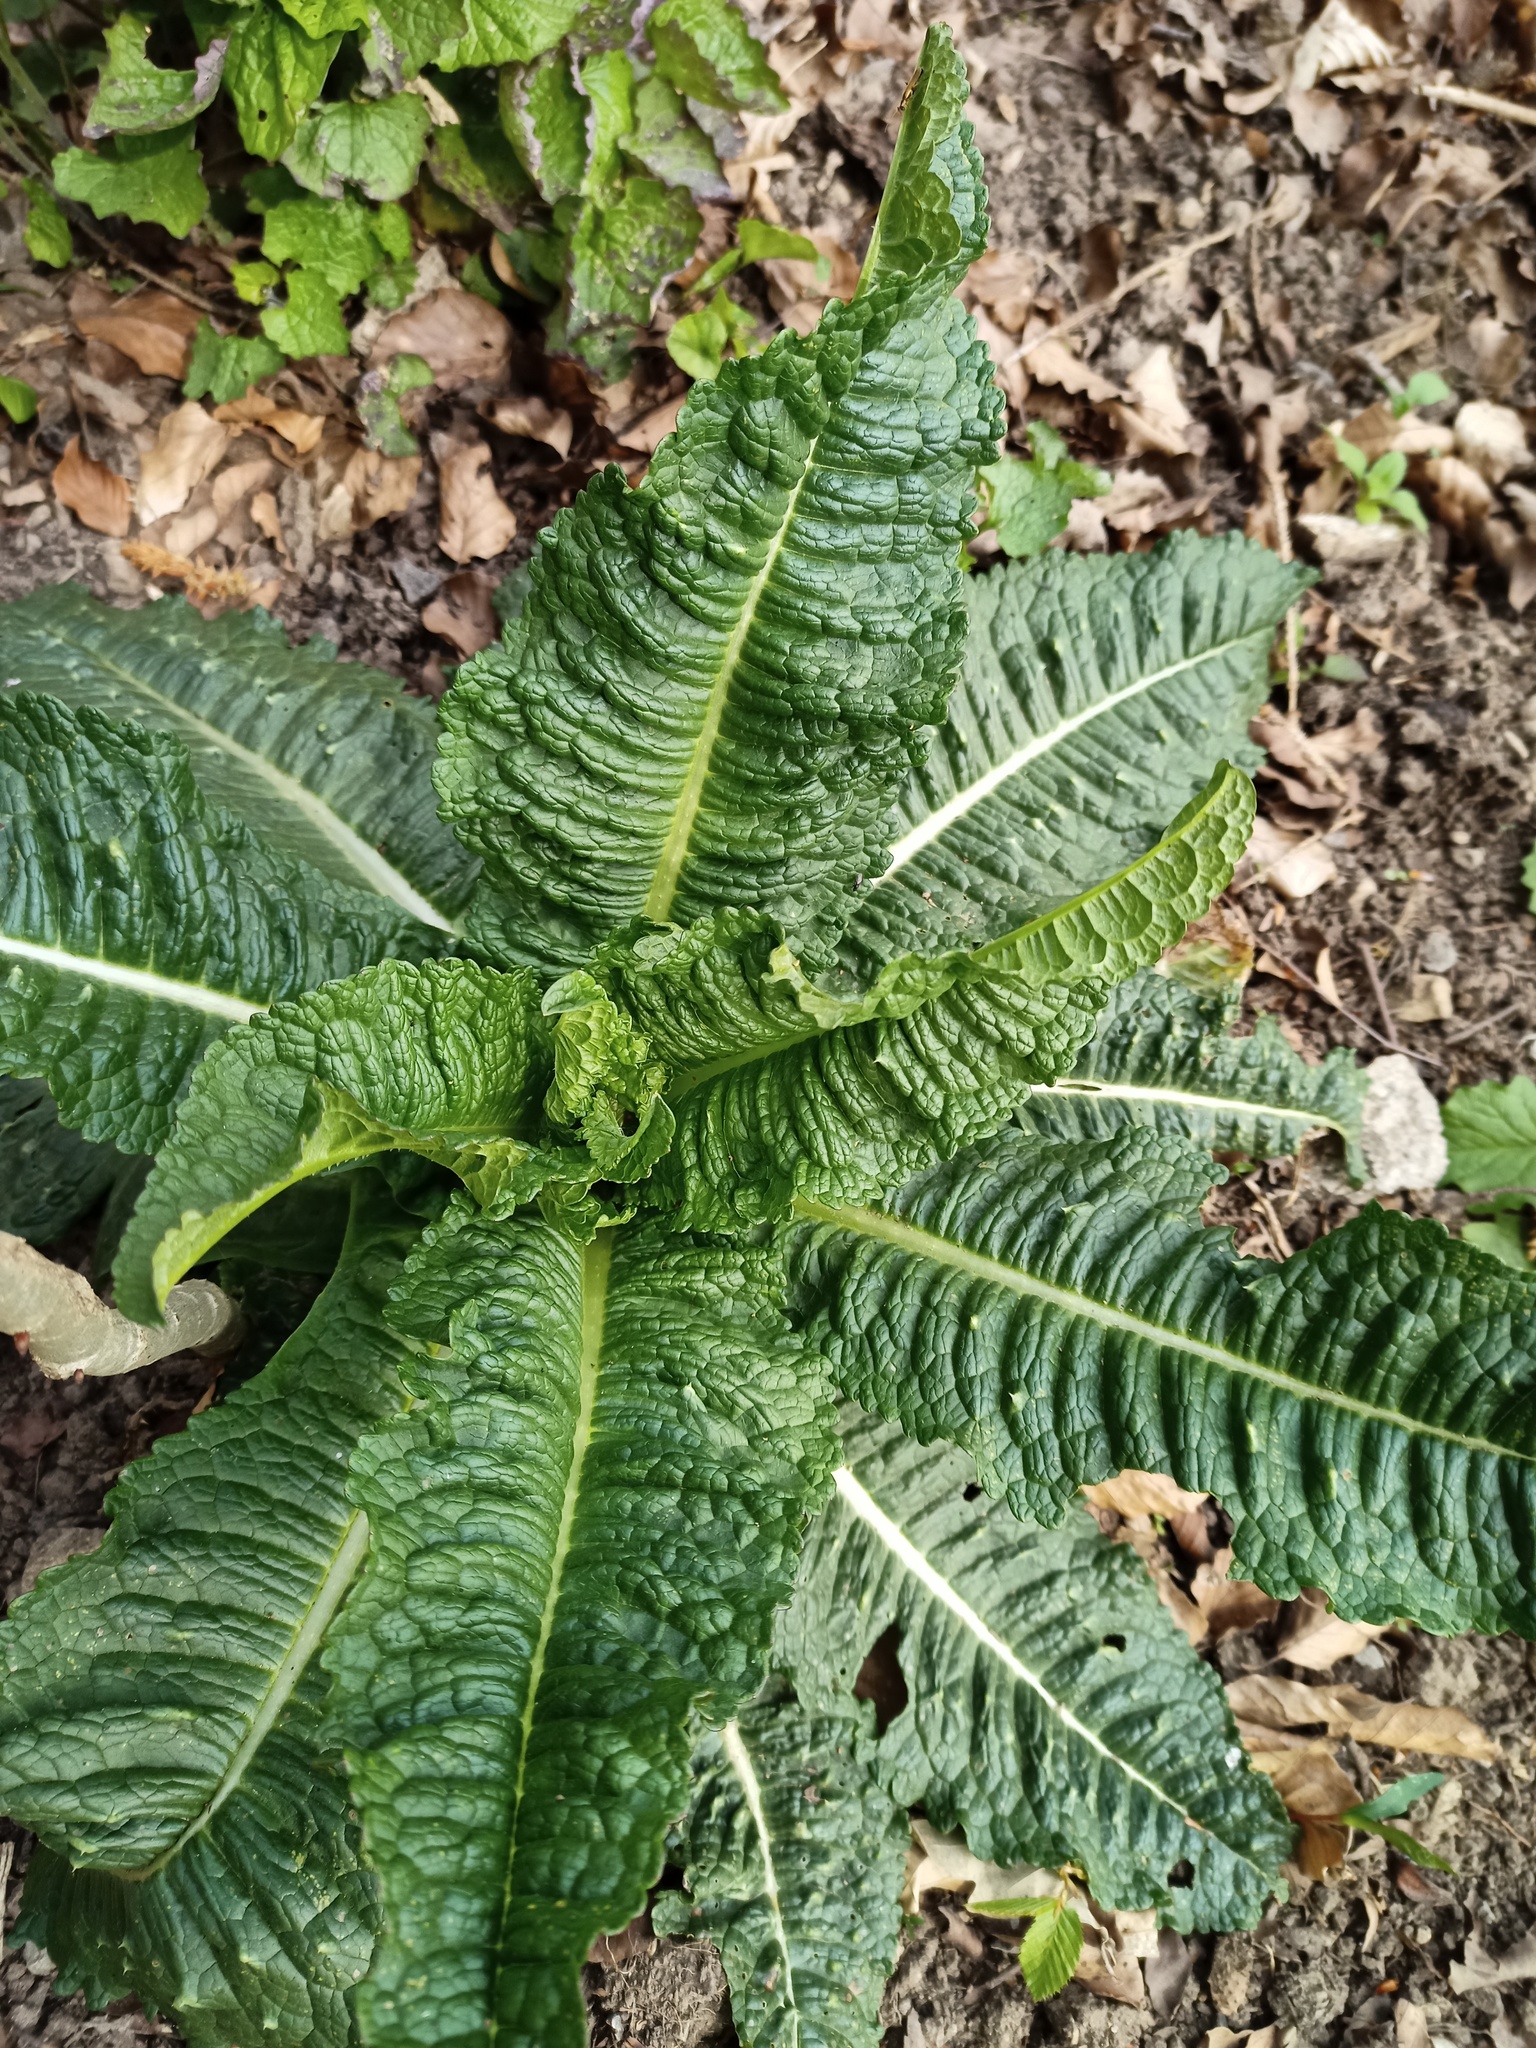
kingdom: Plantae
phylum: Tracheophyta
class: Magnoliopsida
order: Dipsacales
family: Caprifoliaceae
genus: Dipsacus
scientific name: Dipsacus fullonum
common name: Teasel
